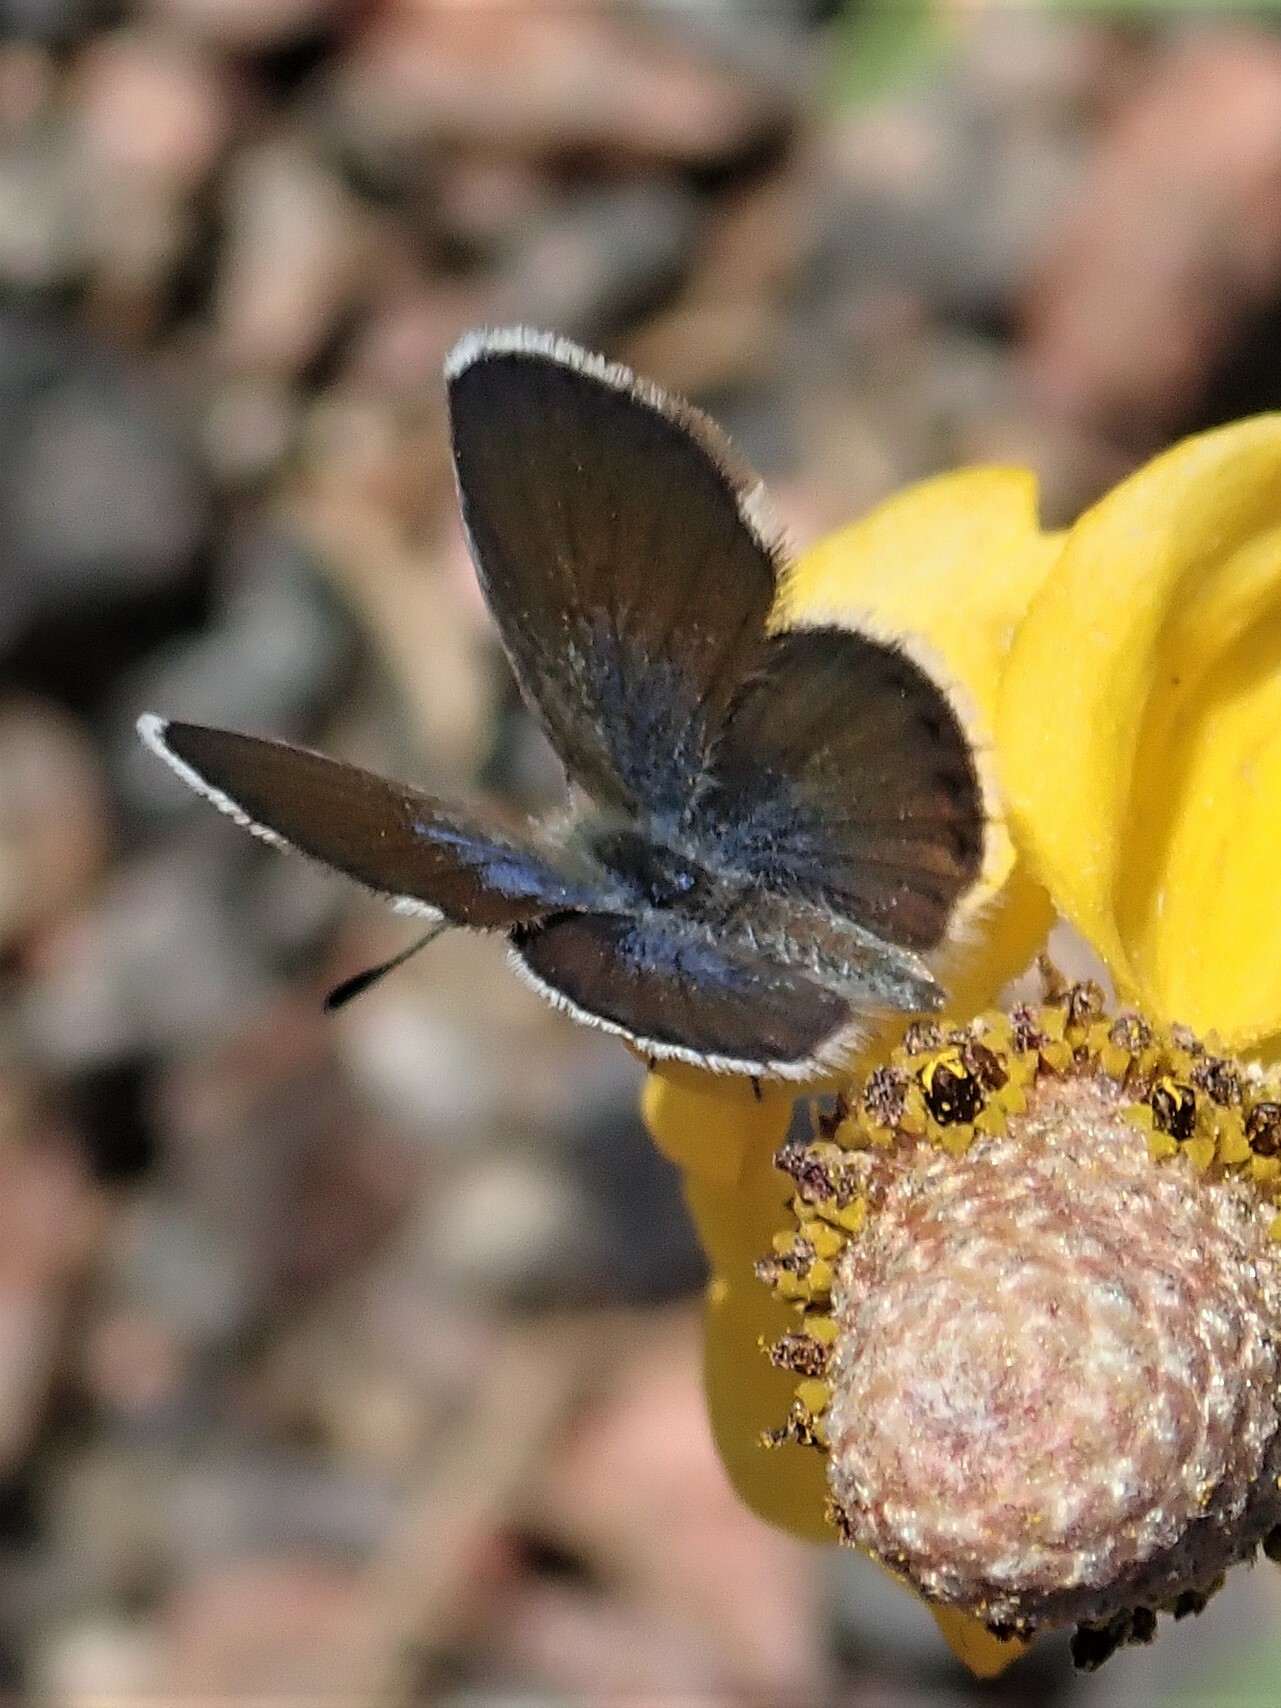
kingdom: Animalia
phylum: Arthropoda
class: Insecta
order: Lepidoptera
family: Lycaenidae
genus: Brephidium
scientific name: Brephidium exilis
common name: Pygmy blue
